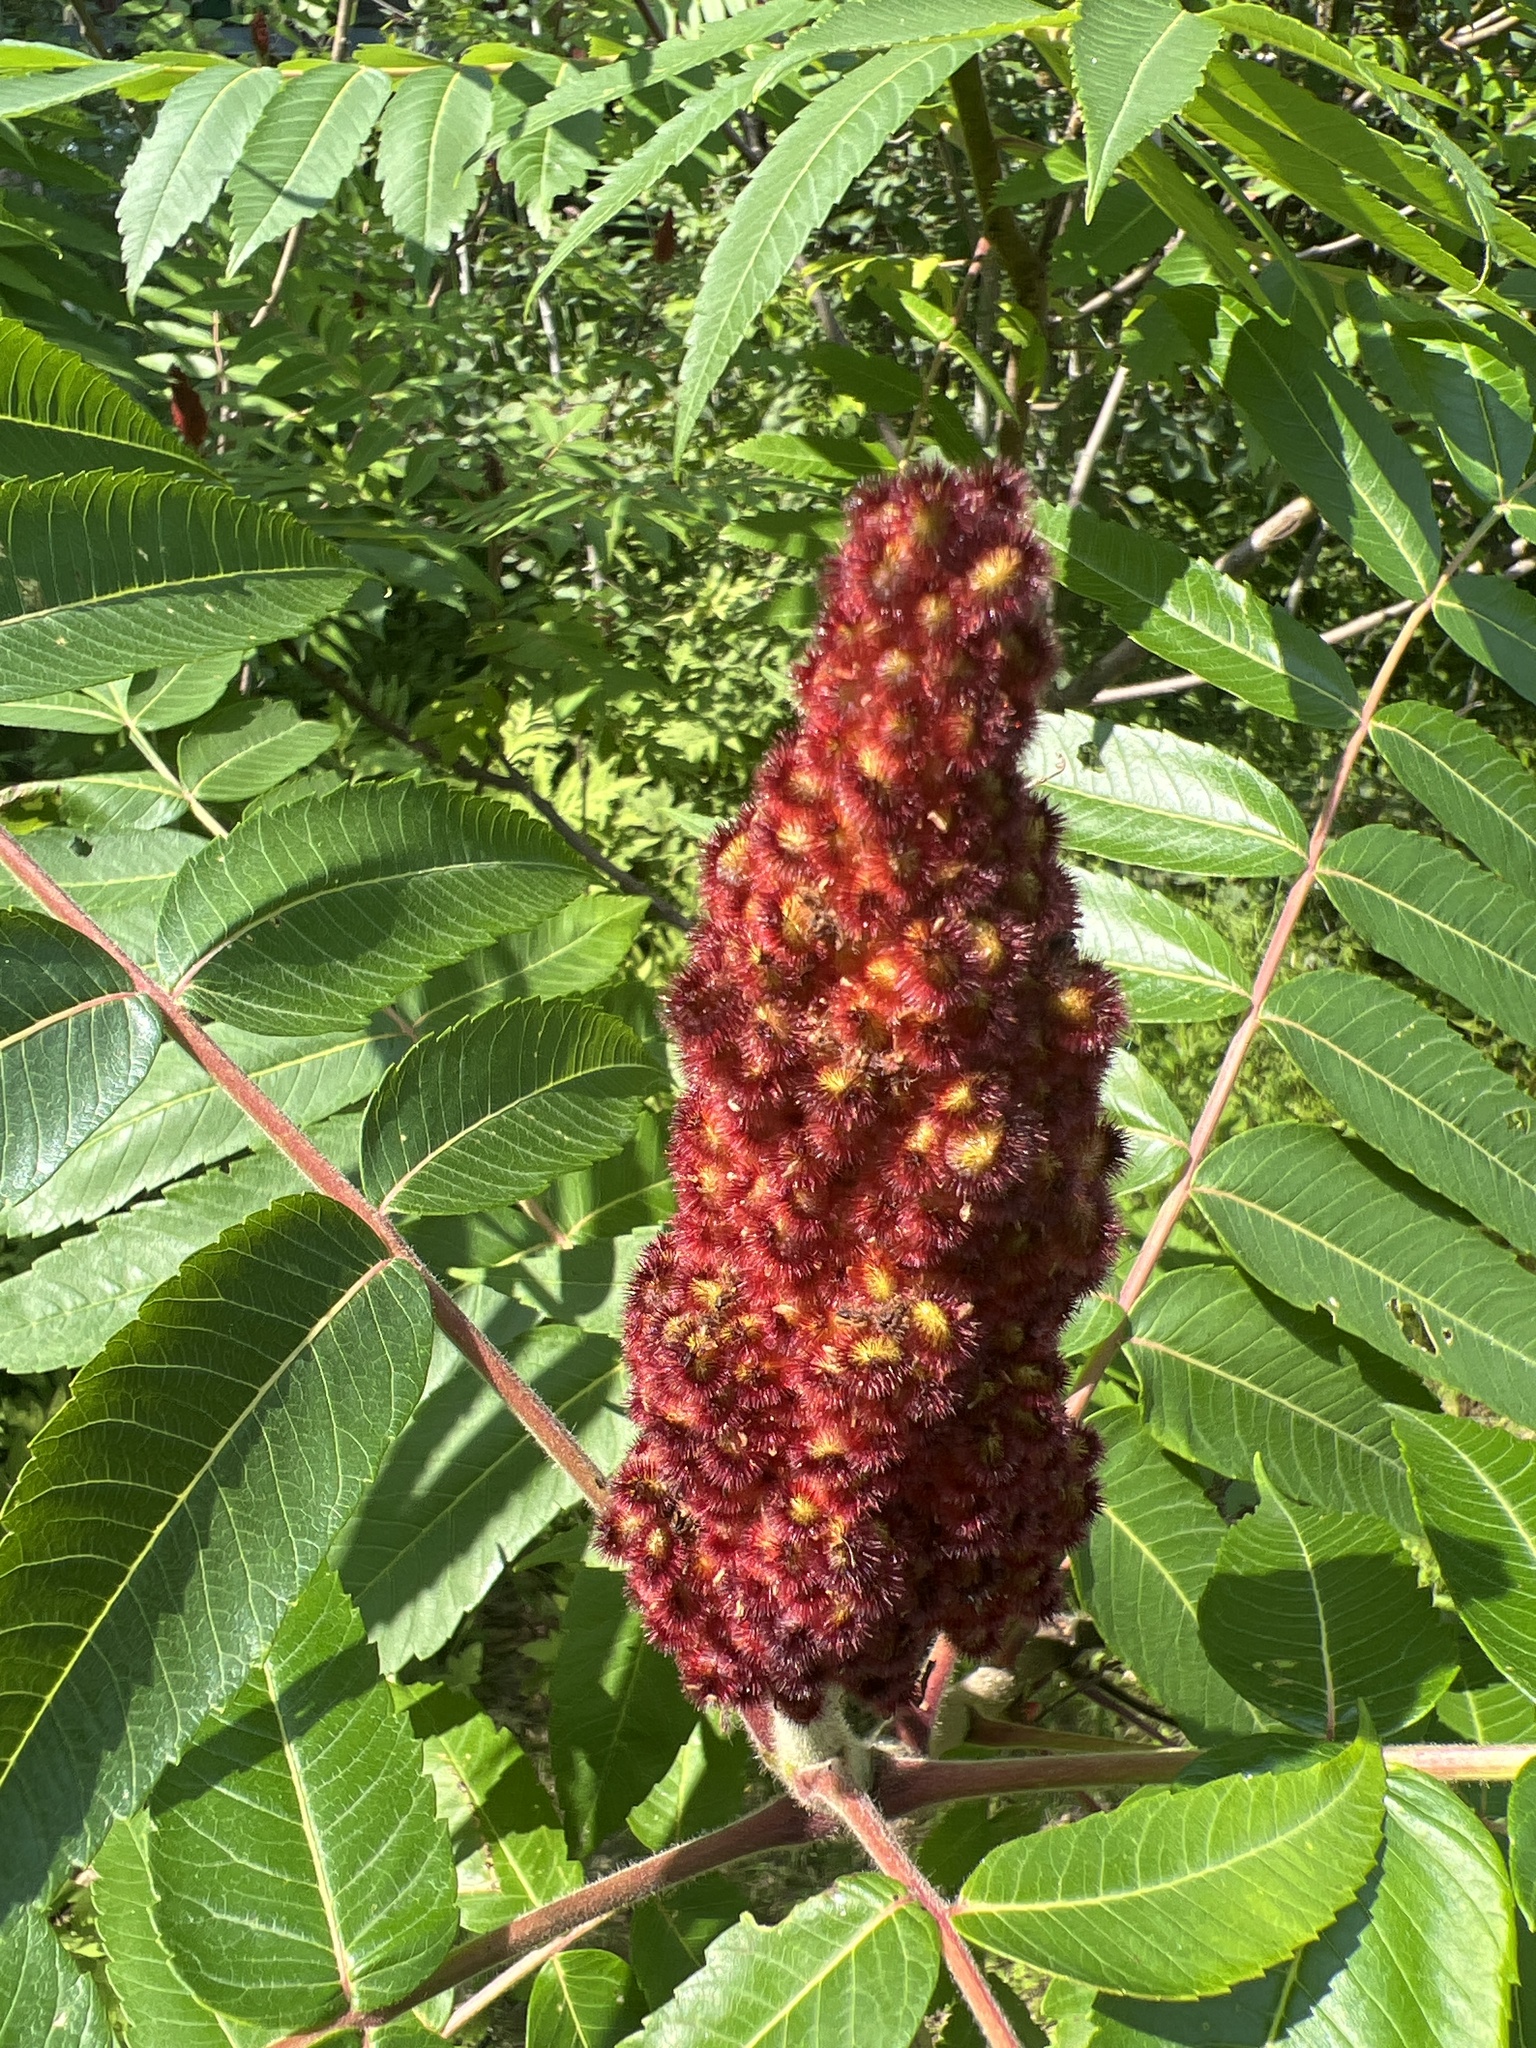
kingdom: Plantae
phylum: Tracheophyta
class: Magnoliopsida
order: Sapindales
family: Anacardiaceae
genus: Rhus
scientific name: Rhus typhina
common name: Staghorn sumac
